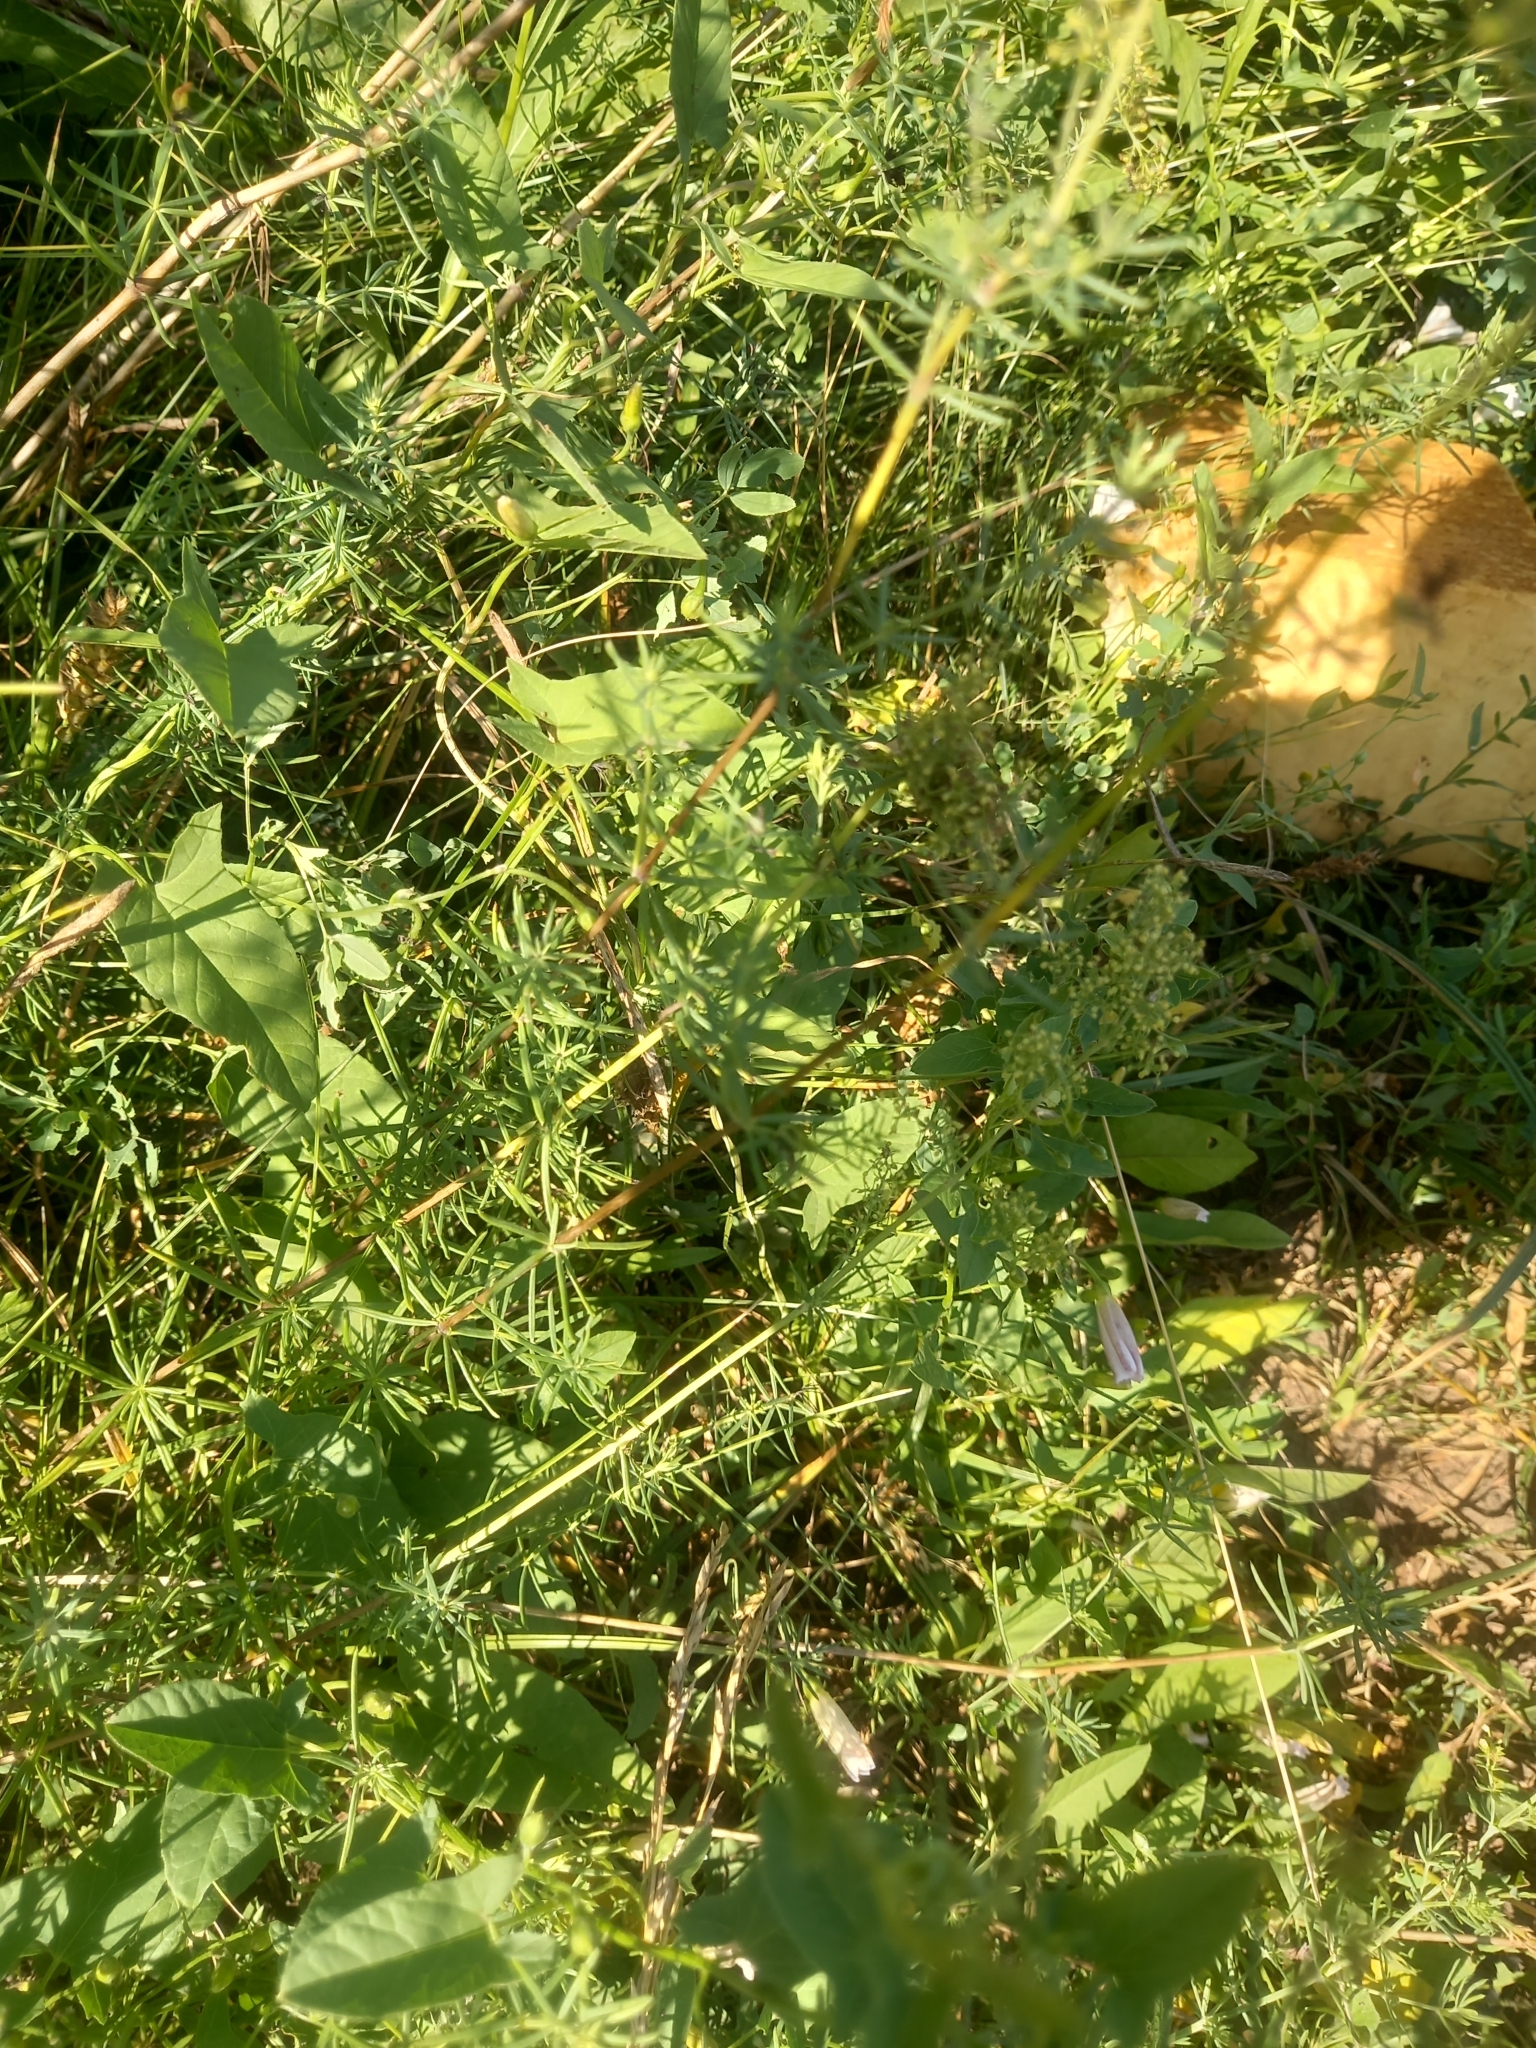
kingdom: Plantae
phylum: Tracheophyta
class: Magnoliopsida
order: Gentianales
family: Rubiaceae
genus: Galium
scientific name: Galium pomeranicum
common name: Bedstraw
